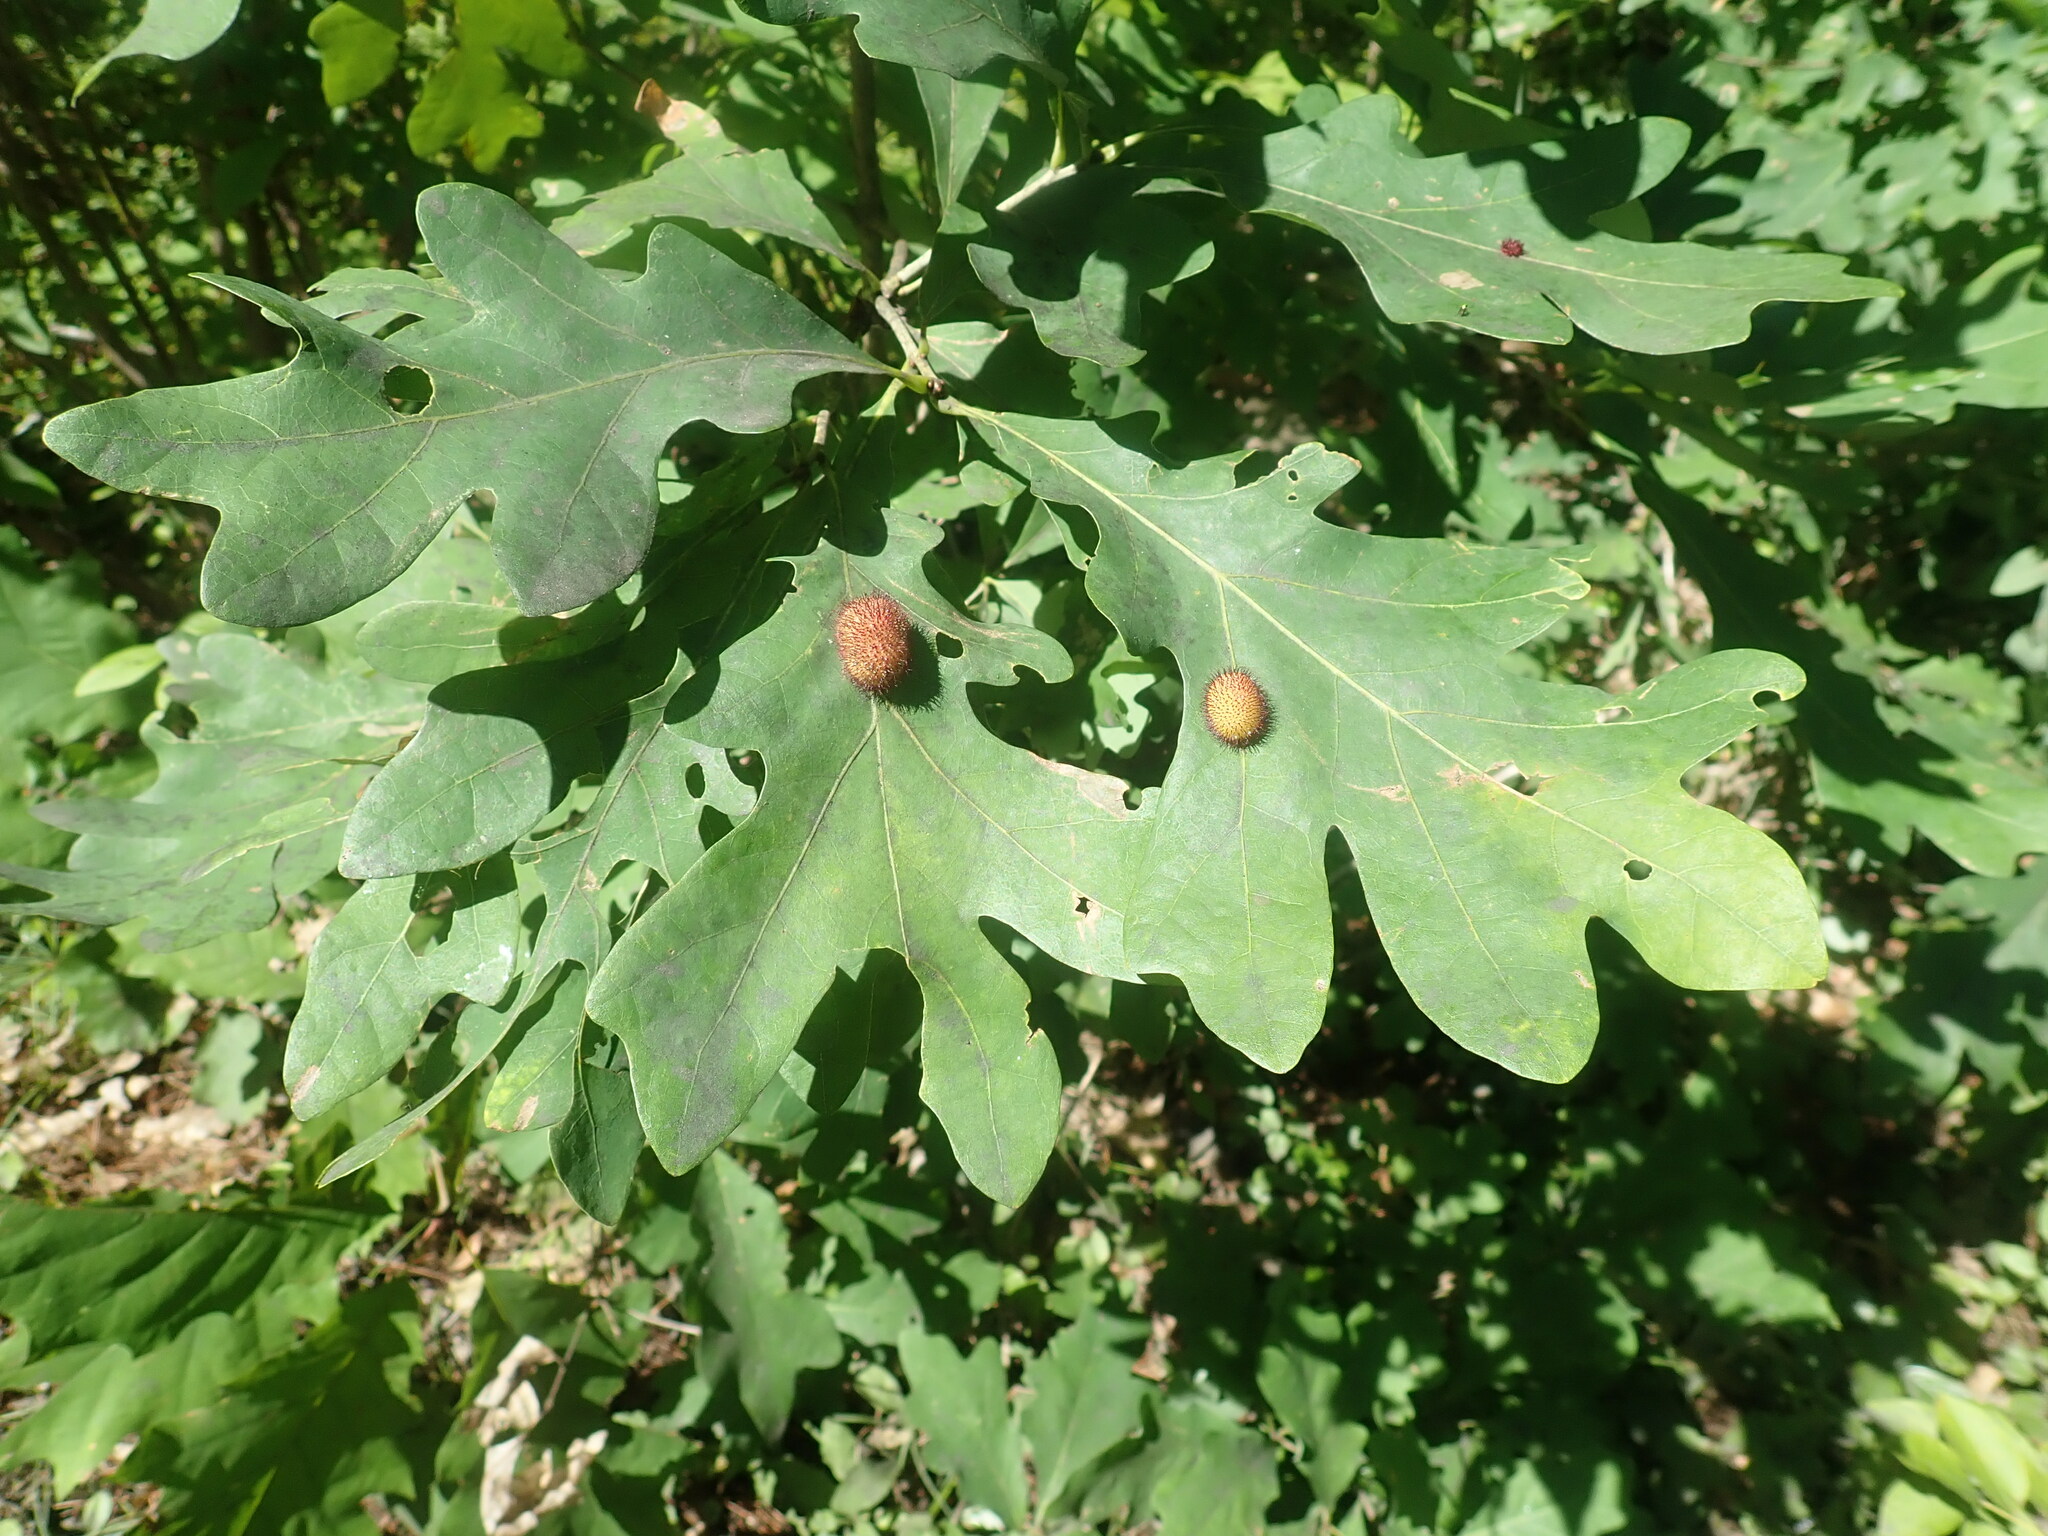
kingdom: Plantae
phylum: Tracheophyta
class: Magnoliopsida
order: Fagales
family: Fagaceae
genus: Quercus
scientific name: Quercus alba
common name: White oak
